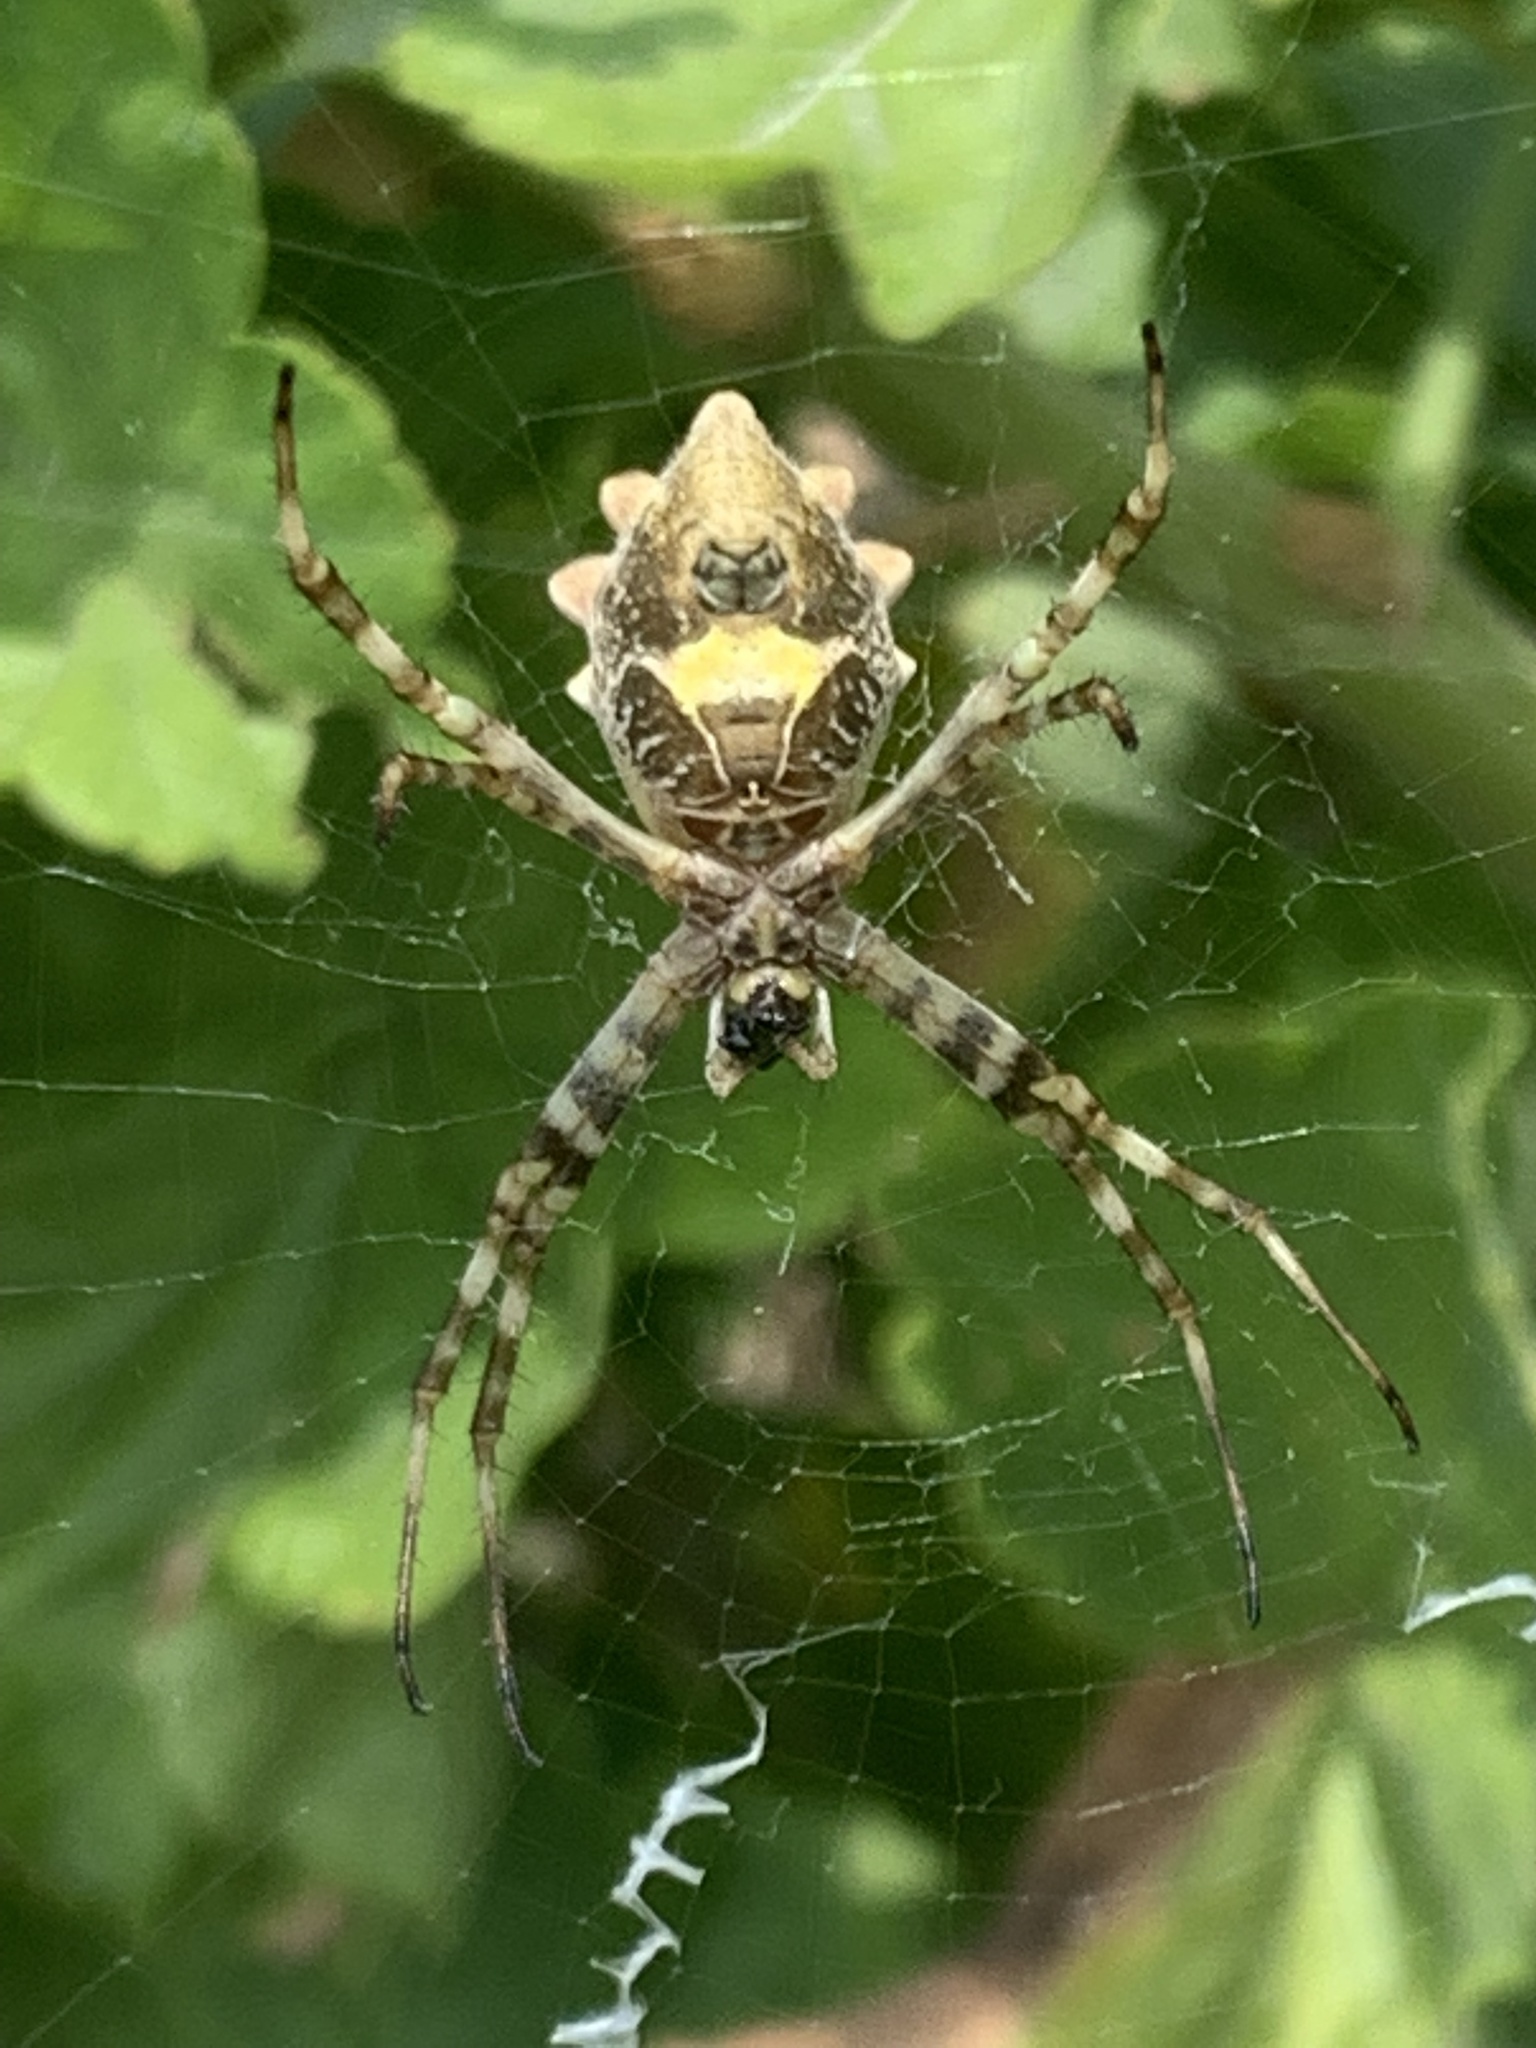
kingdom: Animalia
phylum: Arthropoda
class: Arachnida
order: Araneae
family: Araneidae
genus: Argiope
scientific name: Argiope argentata
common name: Orb weavers
